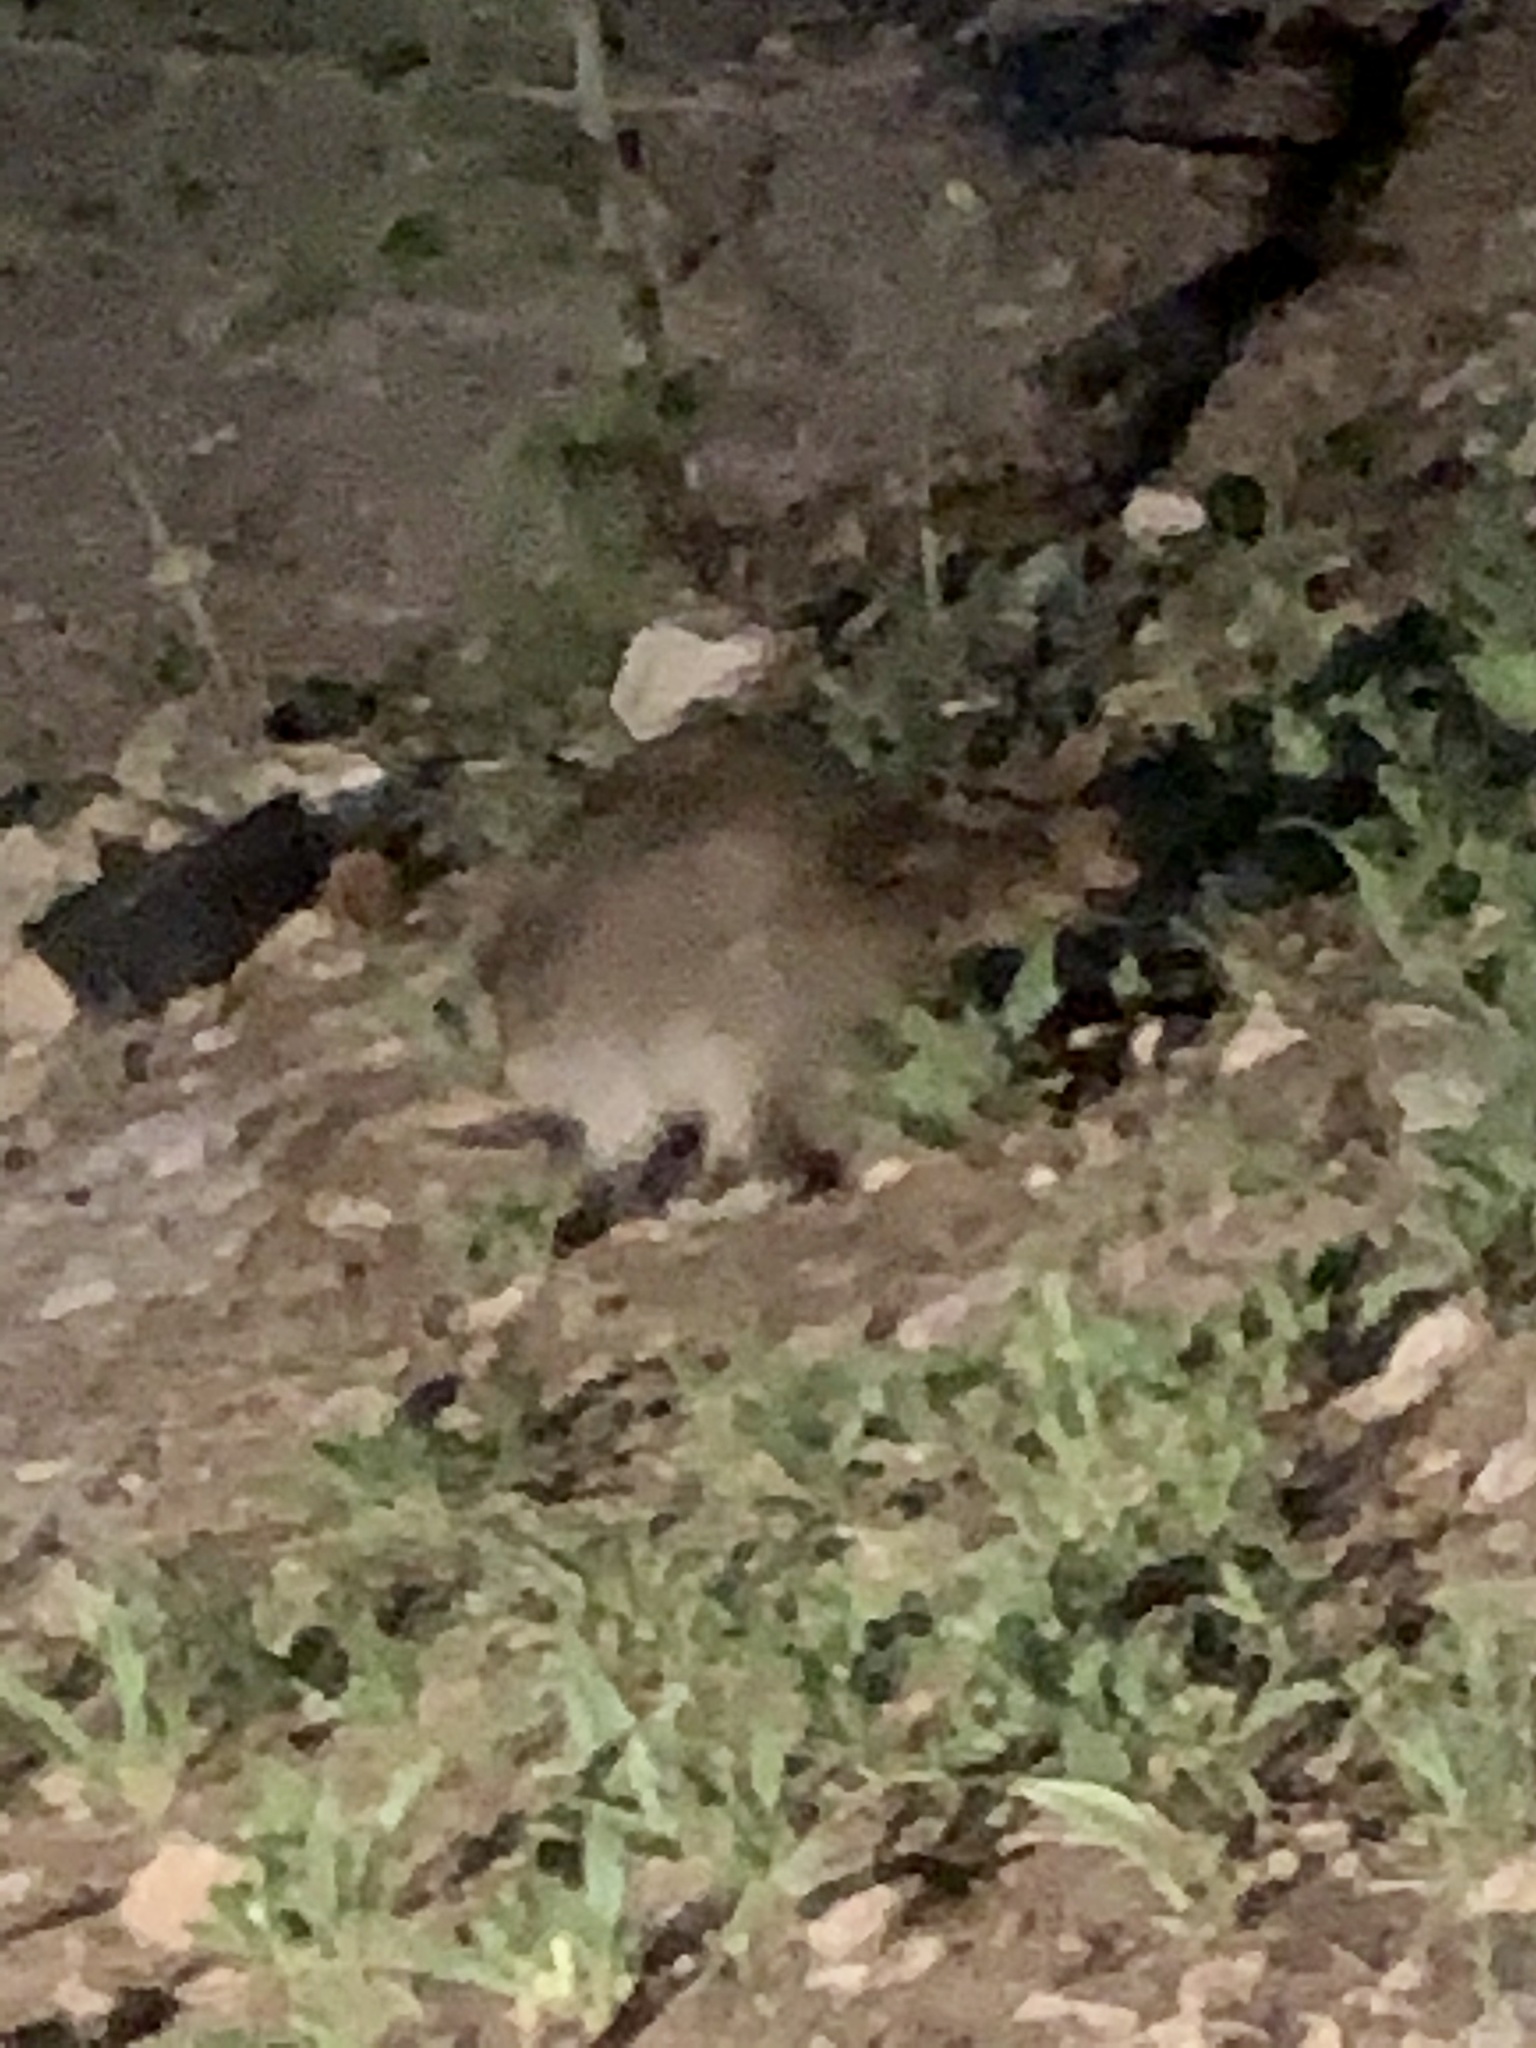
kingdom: Animalia
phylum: Chordata
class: Mammalia
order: Carnivora
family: Procyonidae
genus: Procyon
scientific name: Procyon lotor
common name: Raccoon
